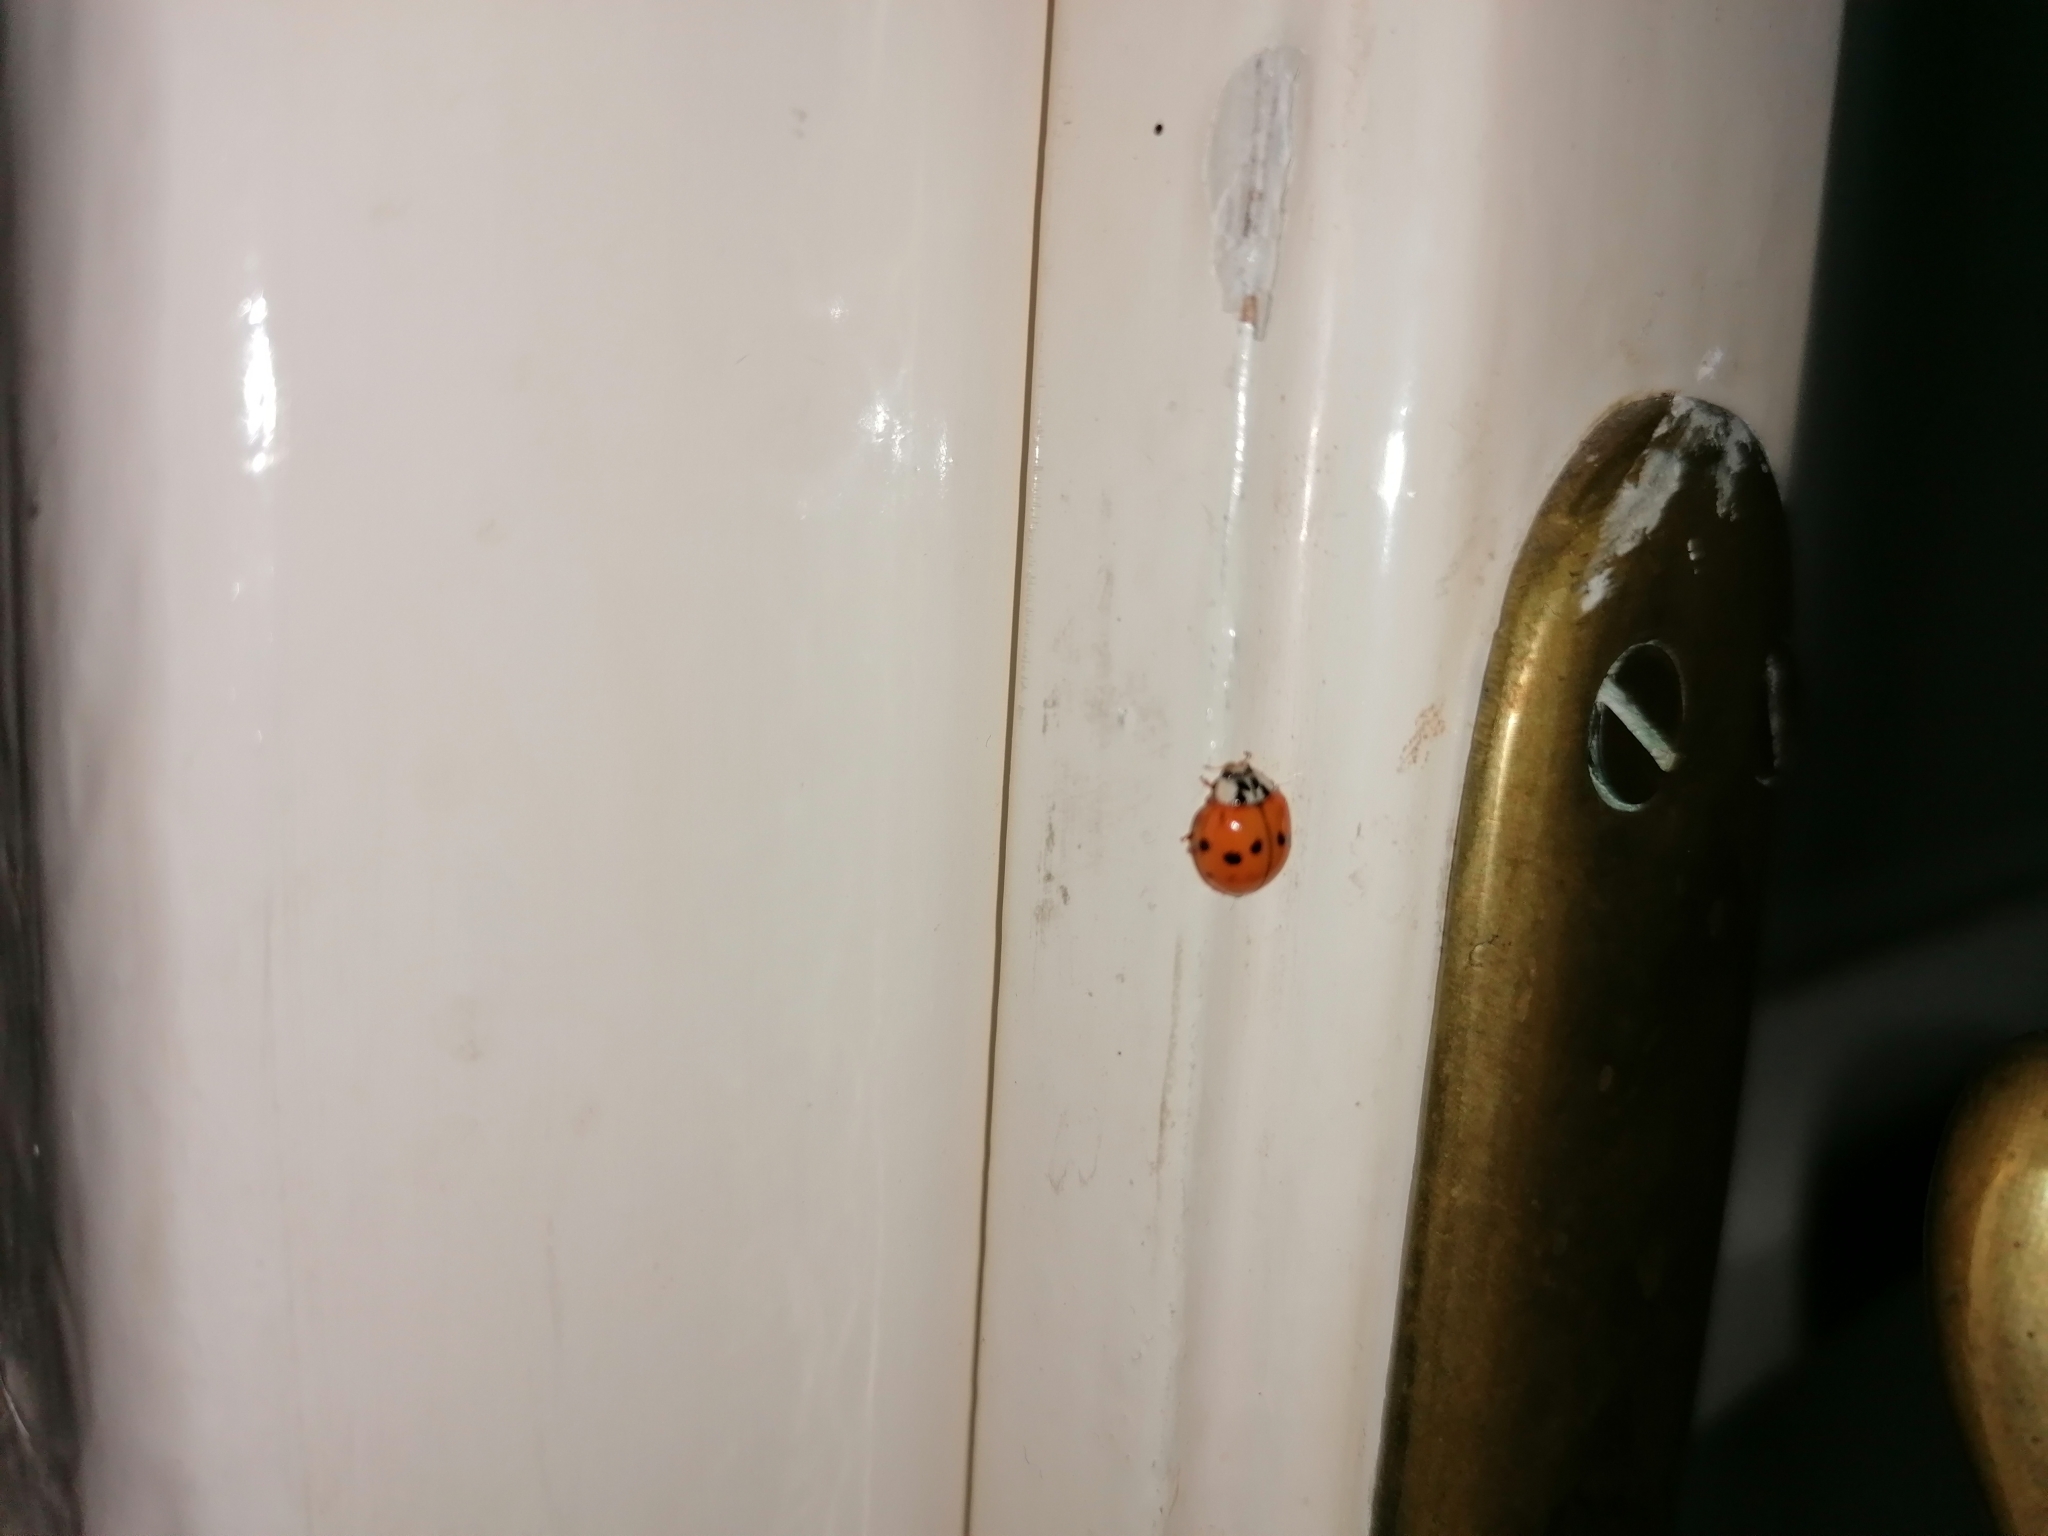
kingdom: Animalia
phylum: Arthropoda
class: Insecta
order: Coleoptera
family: Coccinellidae
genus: Harmonia
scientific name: Harmonia axyridis
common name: Harlequin ladybird
